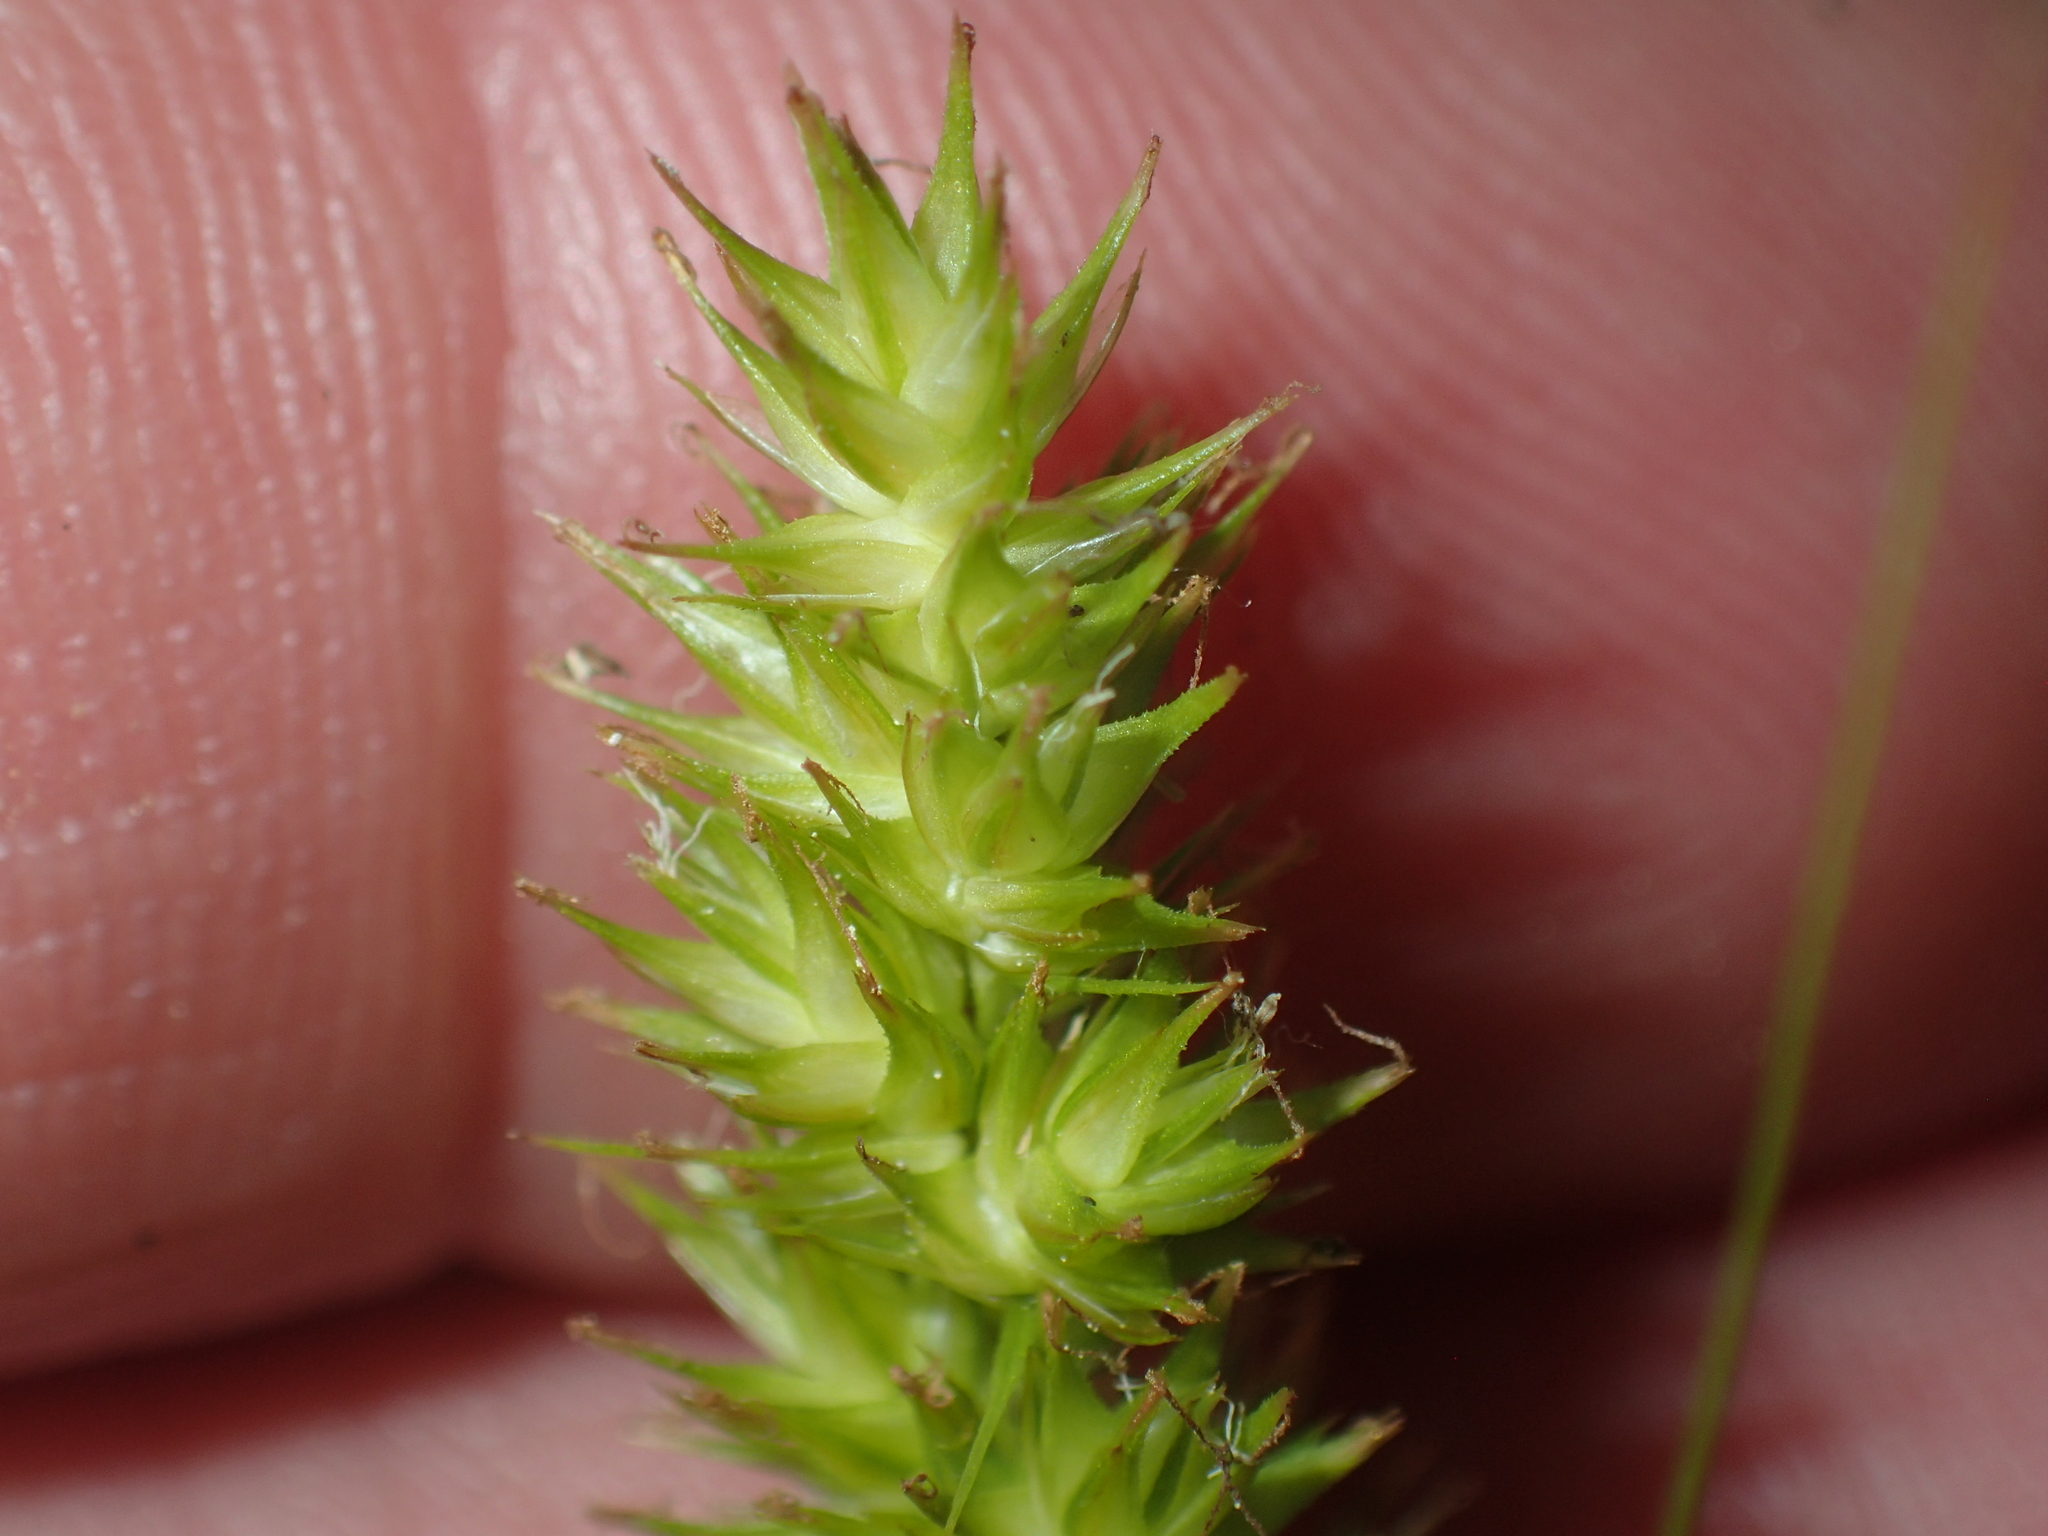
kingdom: Plantae
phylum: Tracheophyta
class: Liliopsida
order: Poales
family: Cyperaceae
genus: Carex
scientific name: Carex stipata
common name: Awl-fruited sedge
